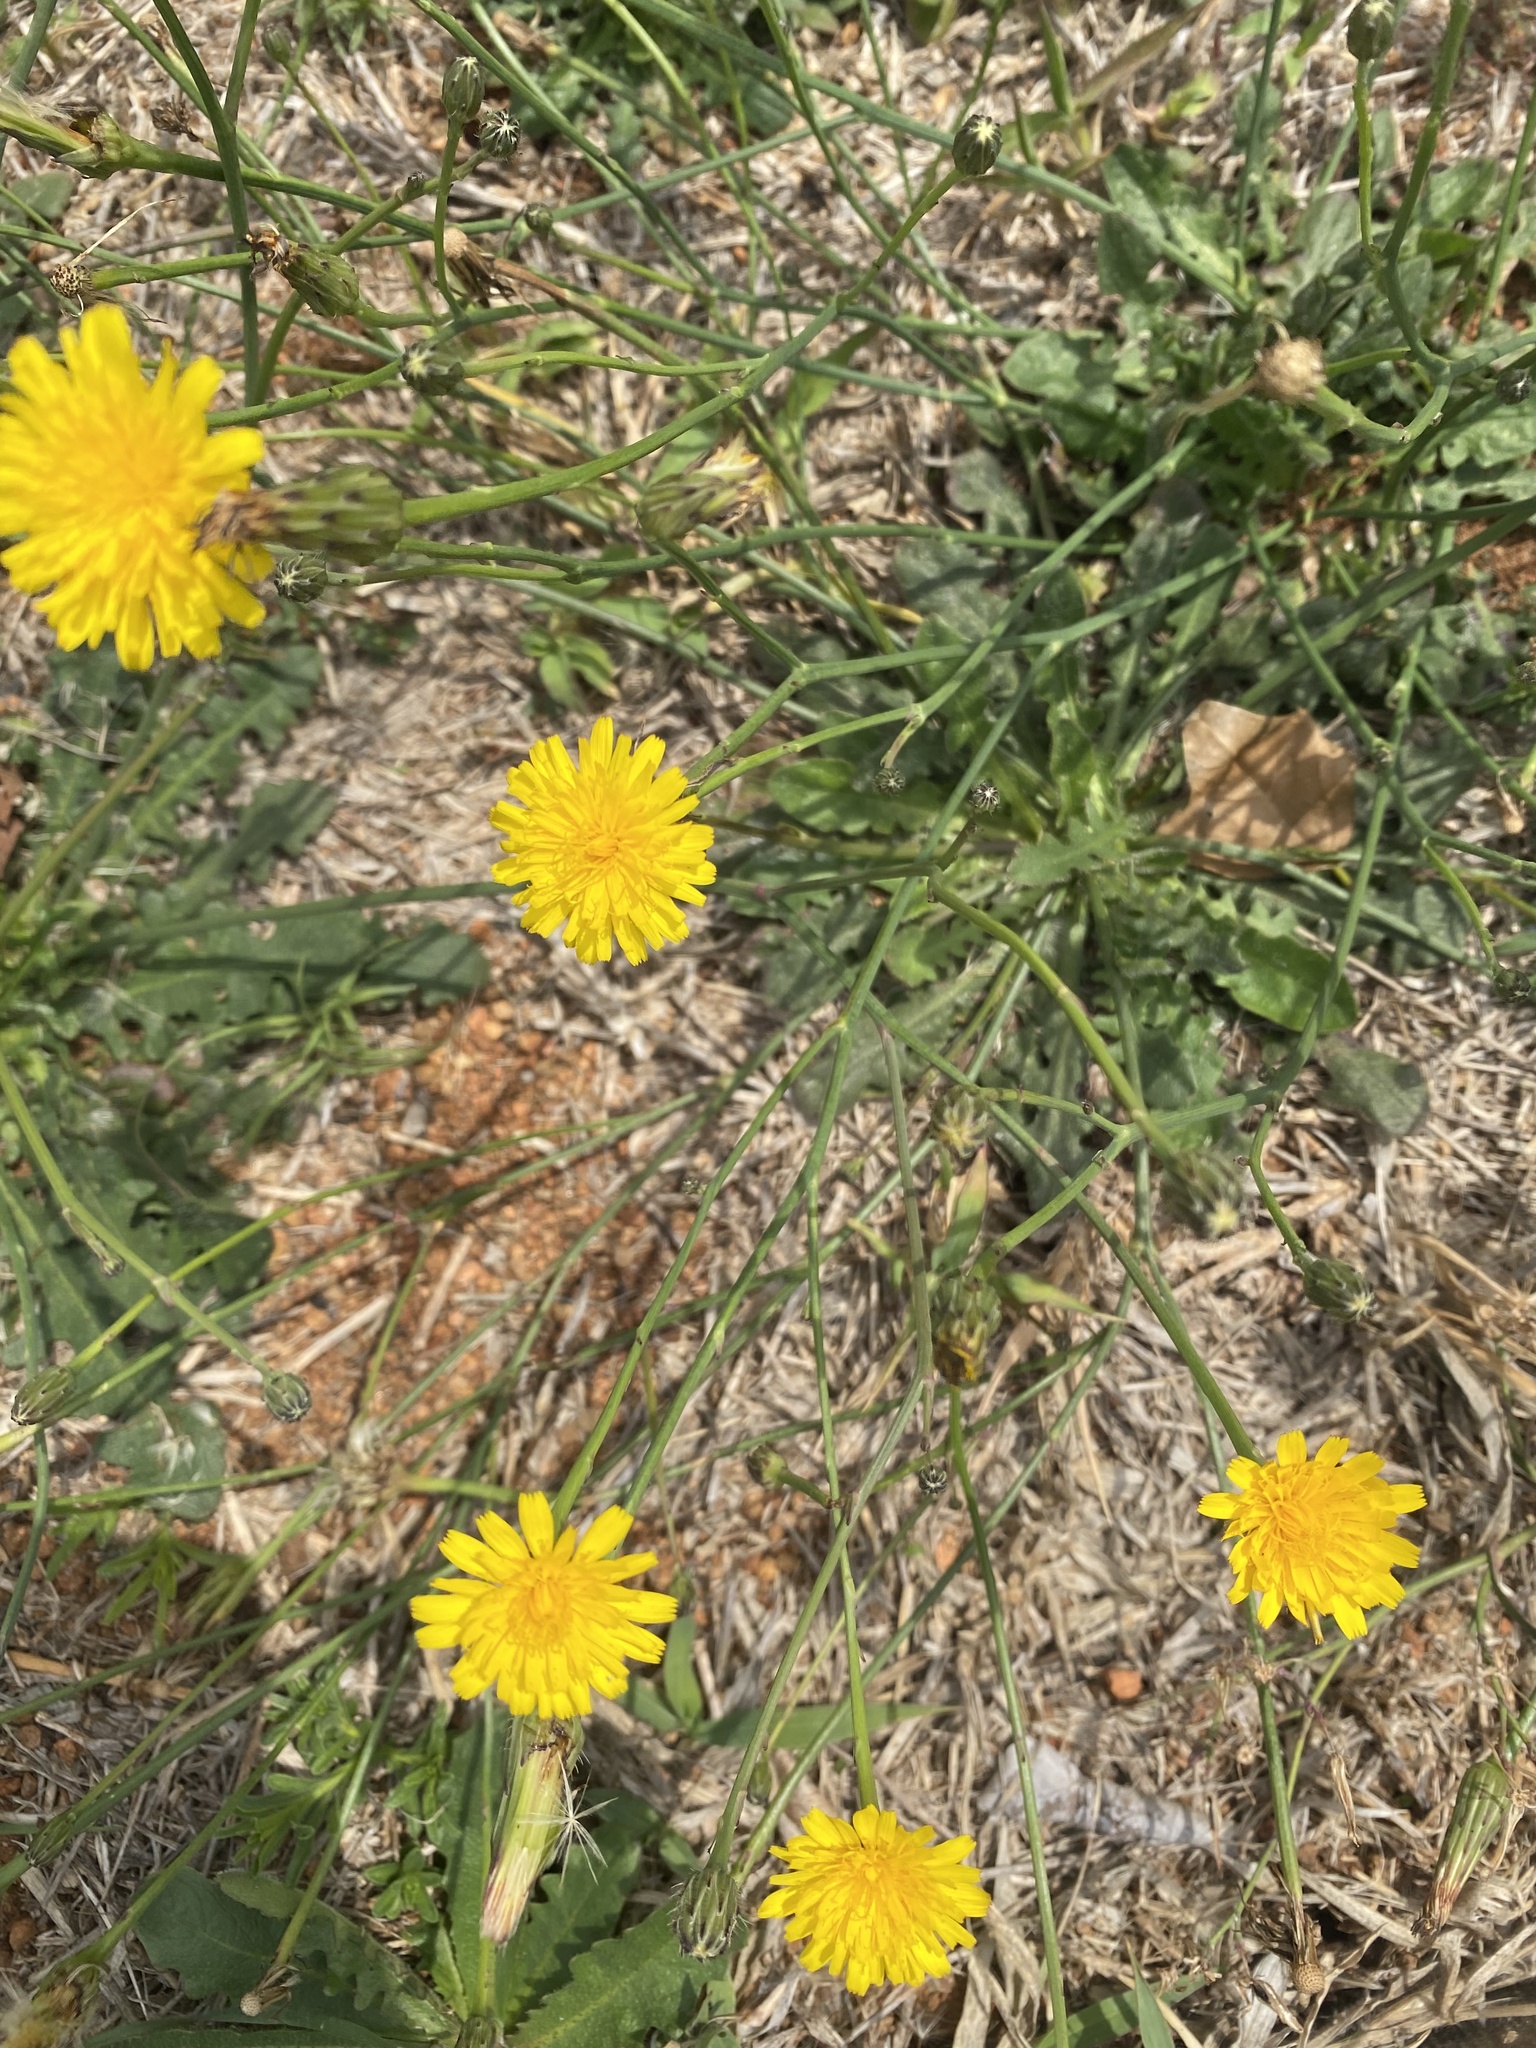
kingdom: Plantae
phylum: Tracheophyta
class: Magnoliopsida
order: Asterales
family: Asteraceae
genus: Hypochaeris
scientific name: Hypochaeris radicata
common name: Flatweed
